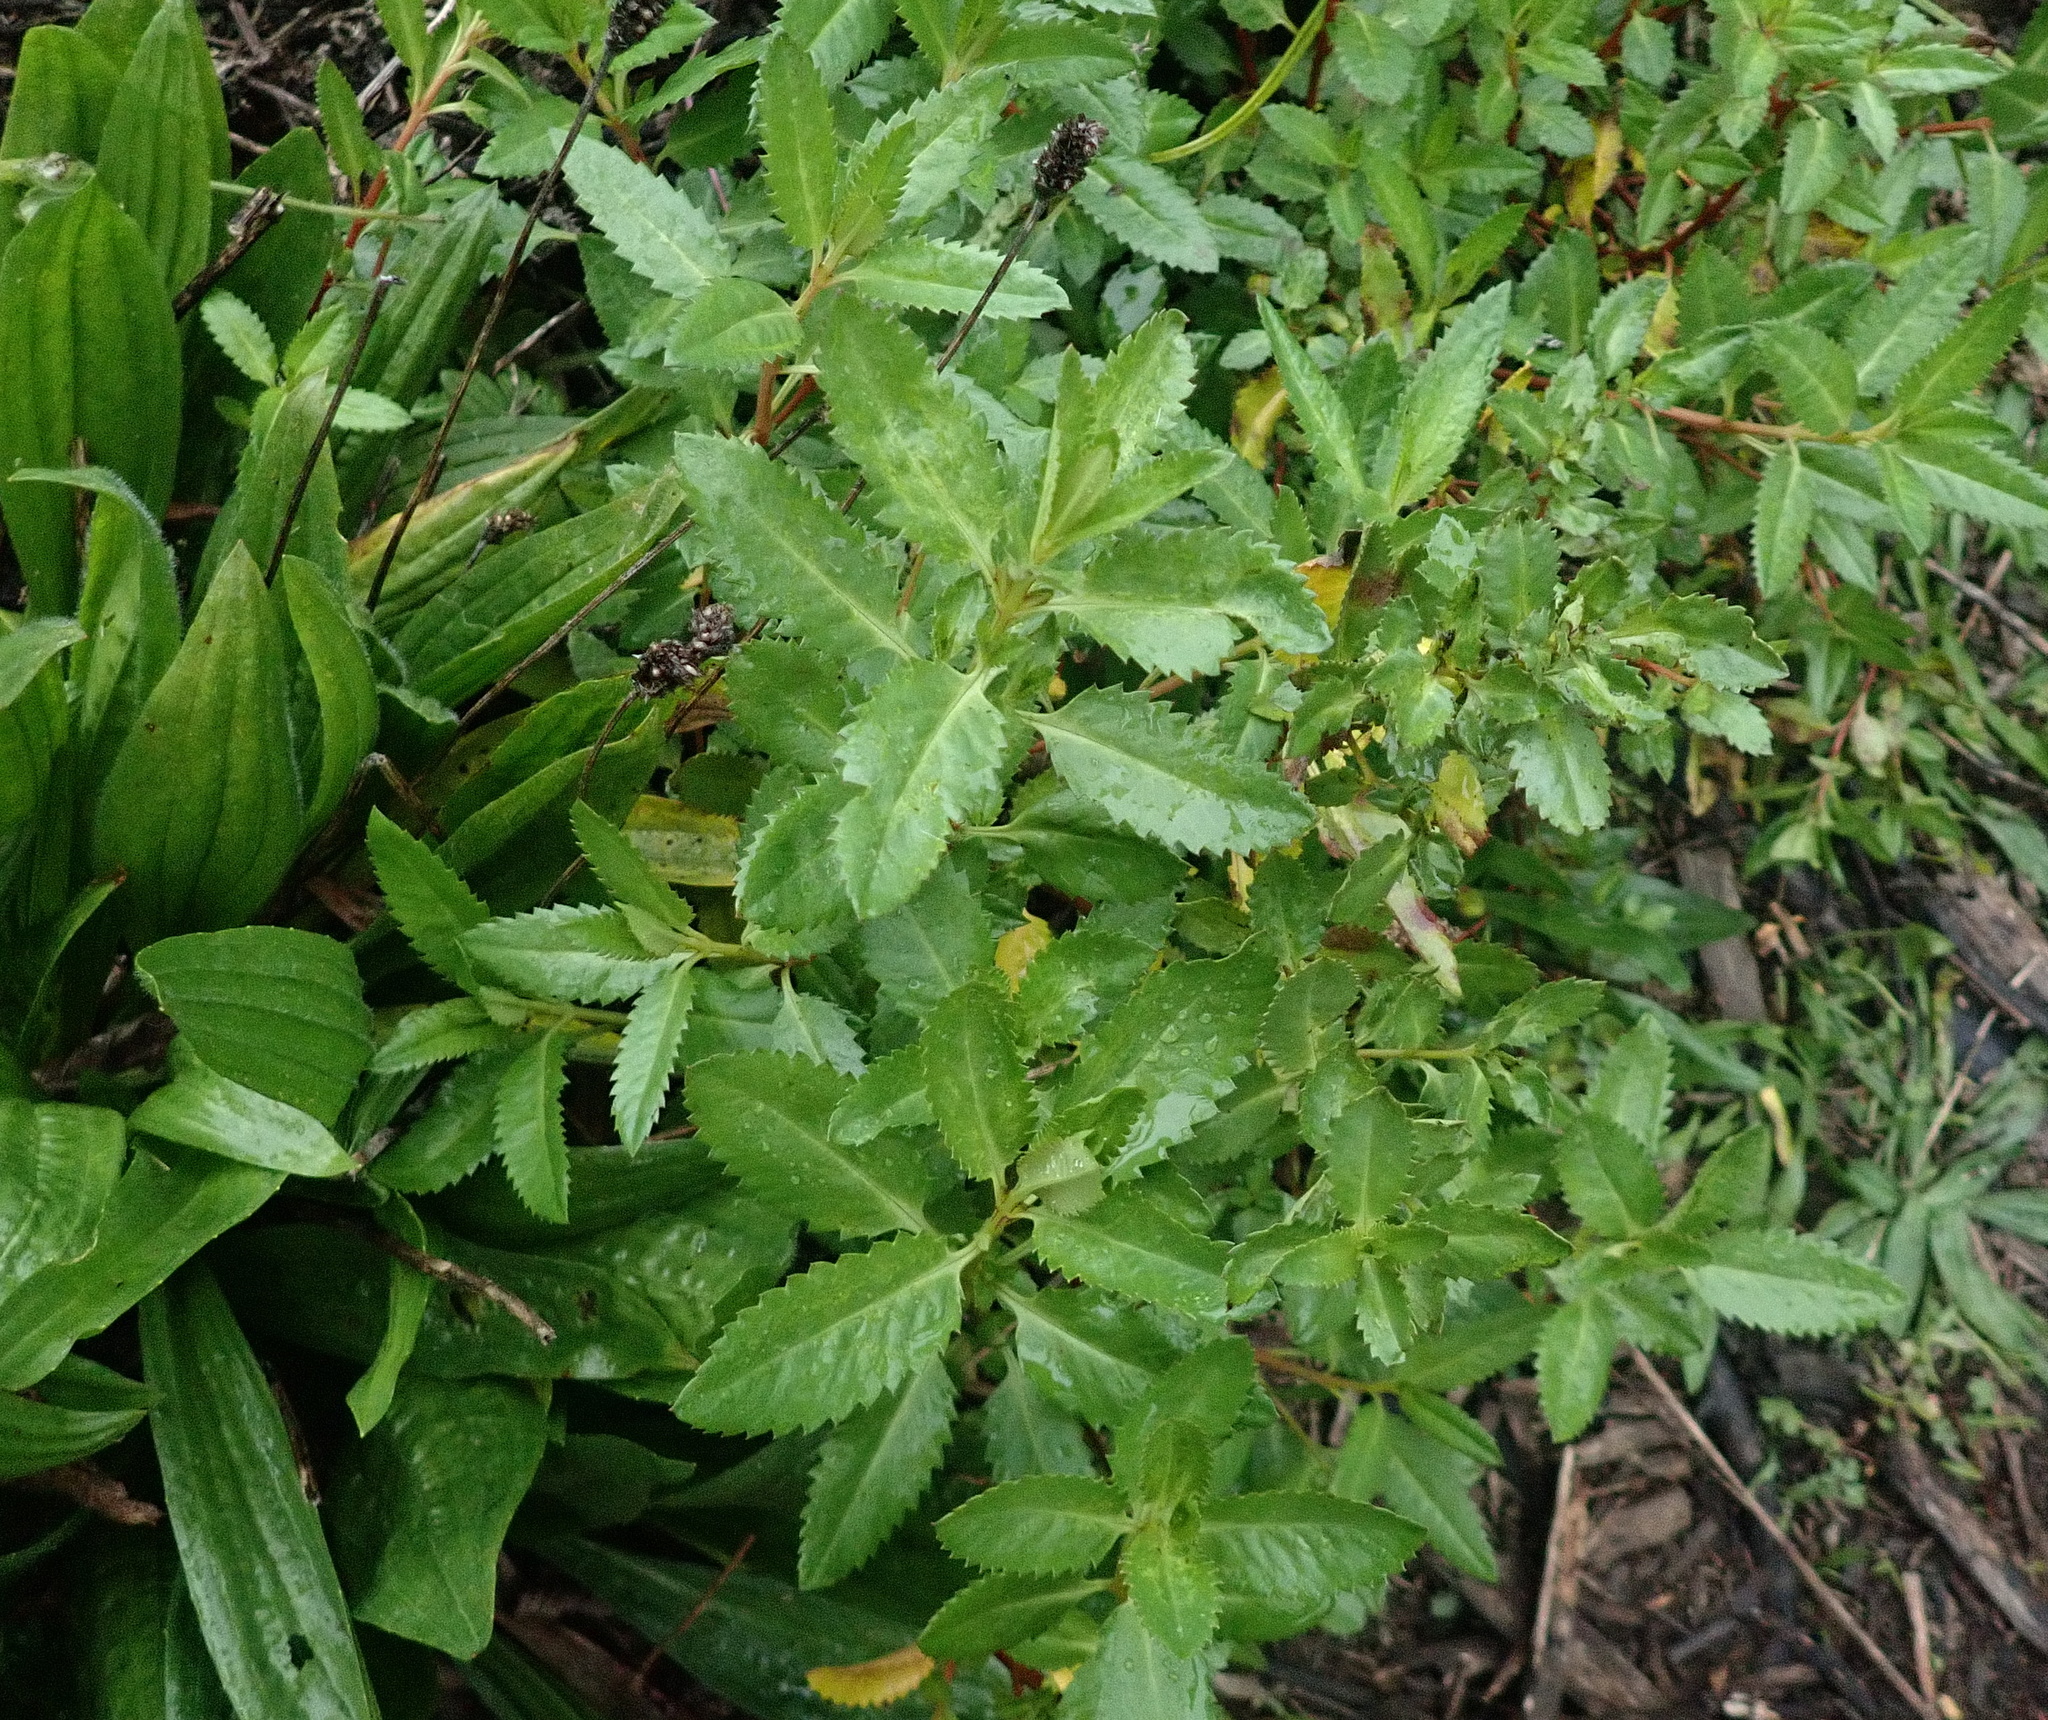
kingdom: Plantae
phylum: Tracheophyta
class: Magnoliopsida
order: Saxifragales
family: Haloragaceae
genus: Haloragis
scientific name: Haloragis erecta
